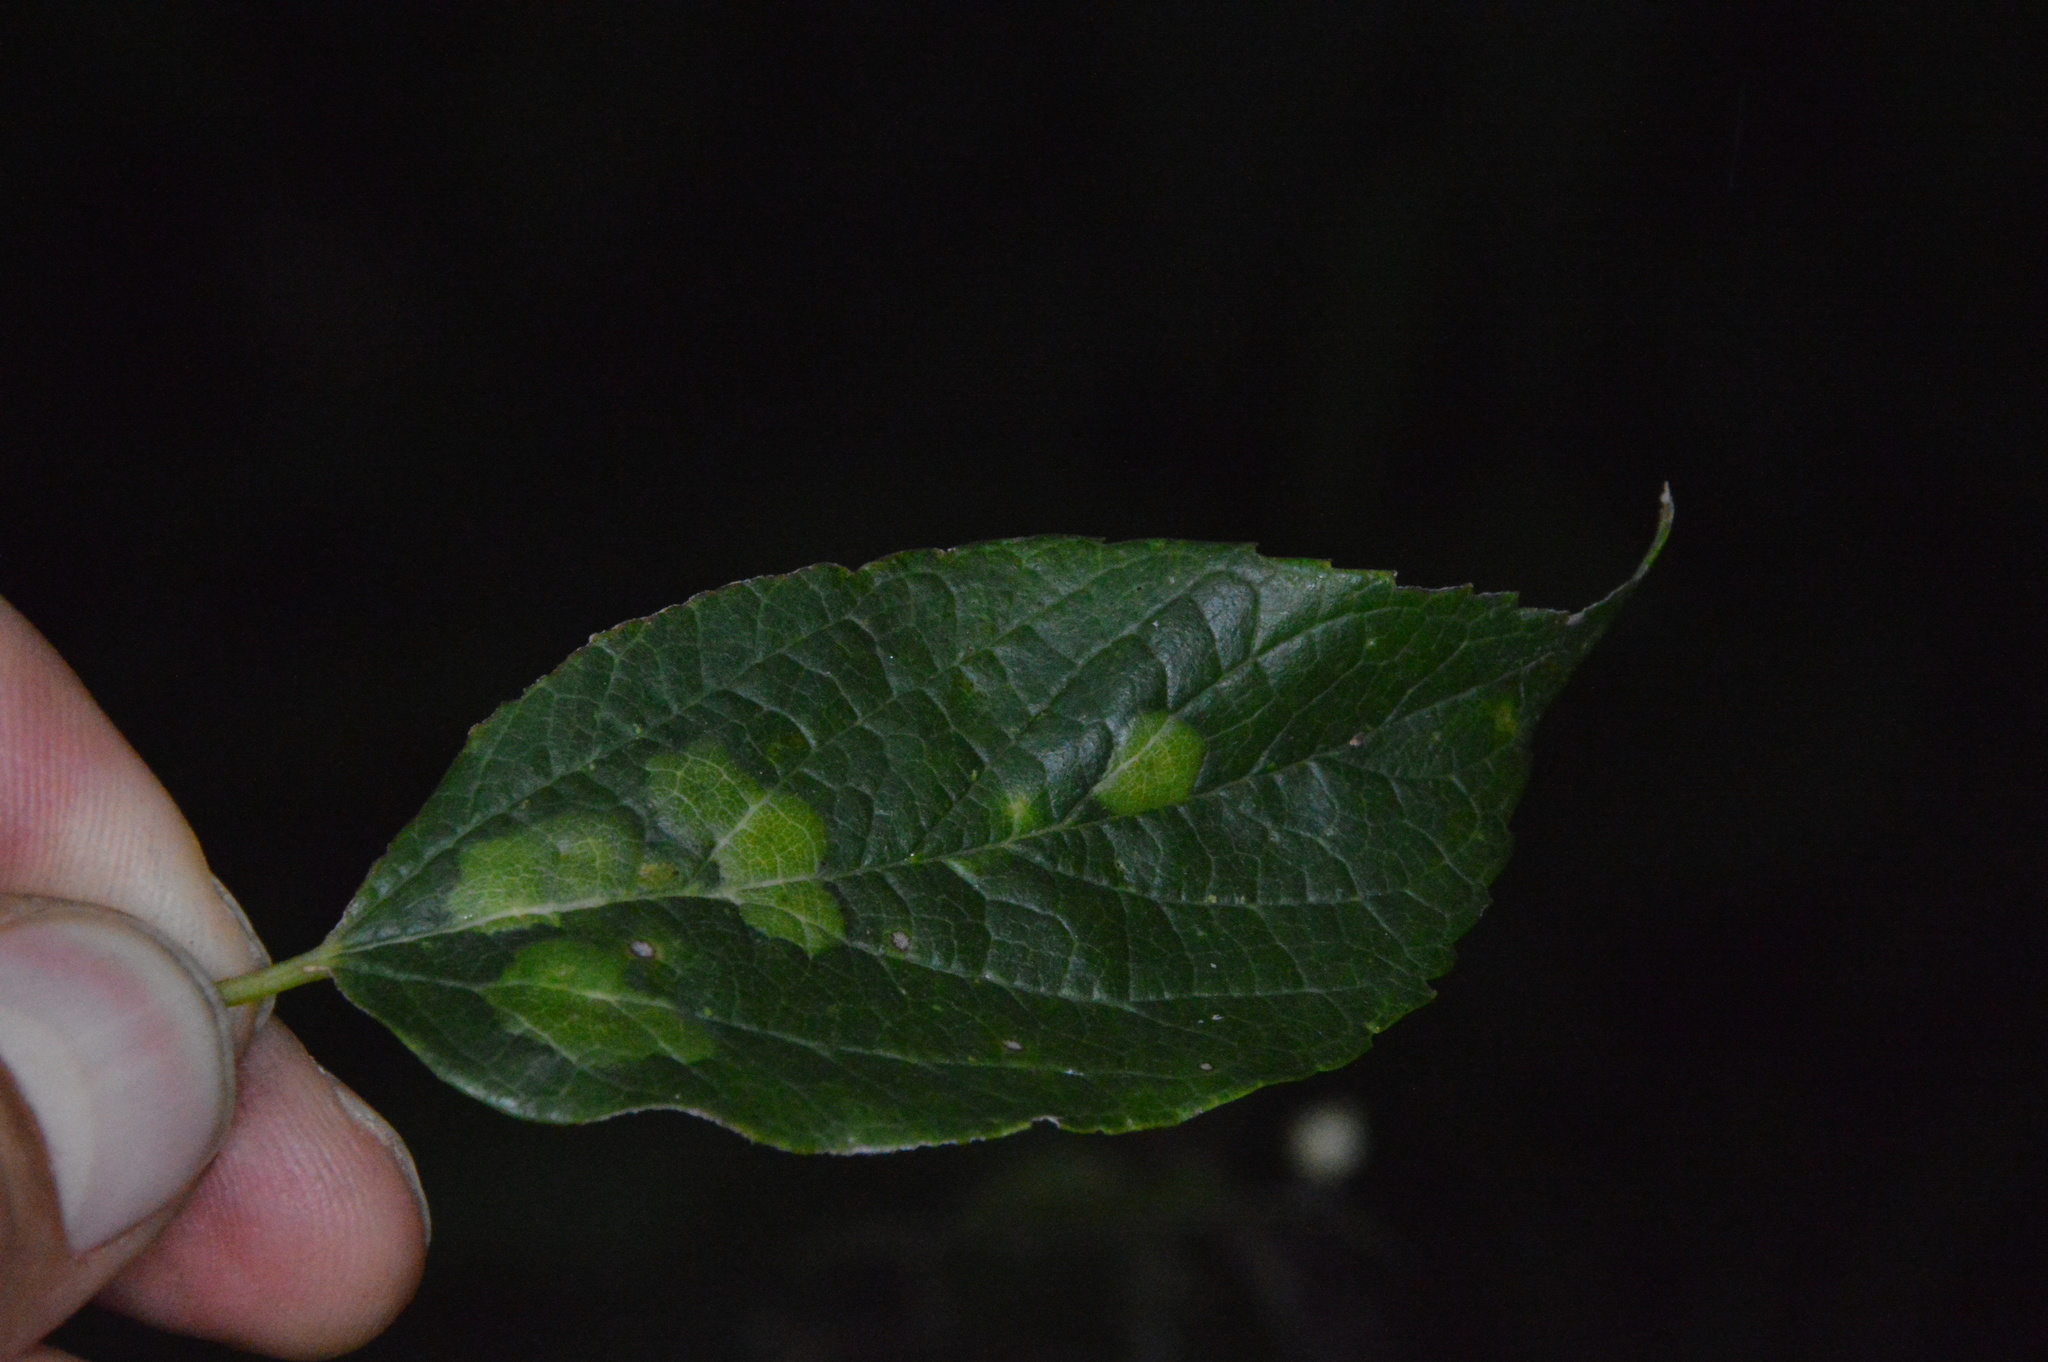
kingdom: Animalia
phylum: Arthropoda
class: Insecta
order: Hemiptera
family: Aphalaridae
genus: Pachypsylla
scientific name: Pachypsylla celtidisvesicula
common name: Hackberry blister gall psyllid
